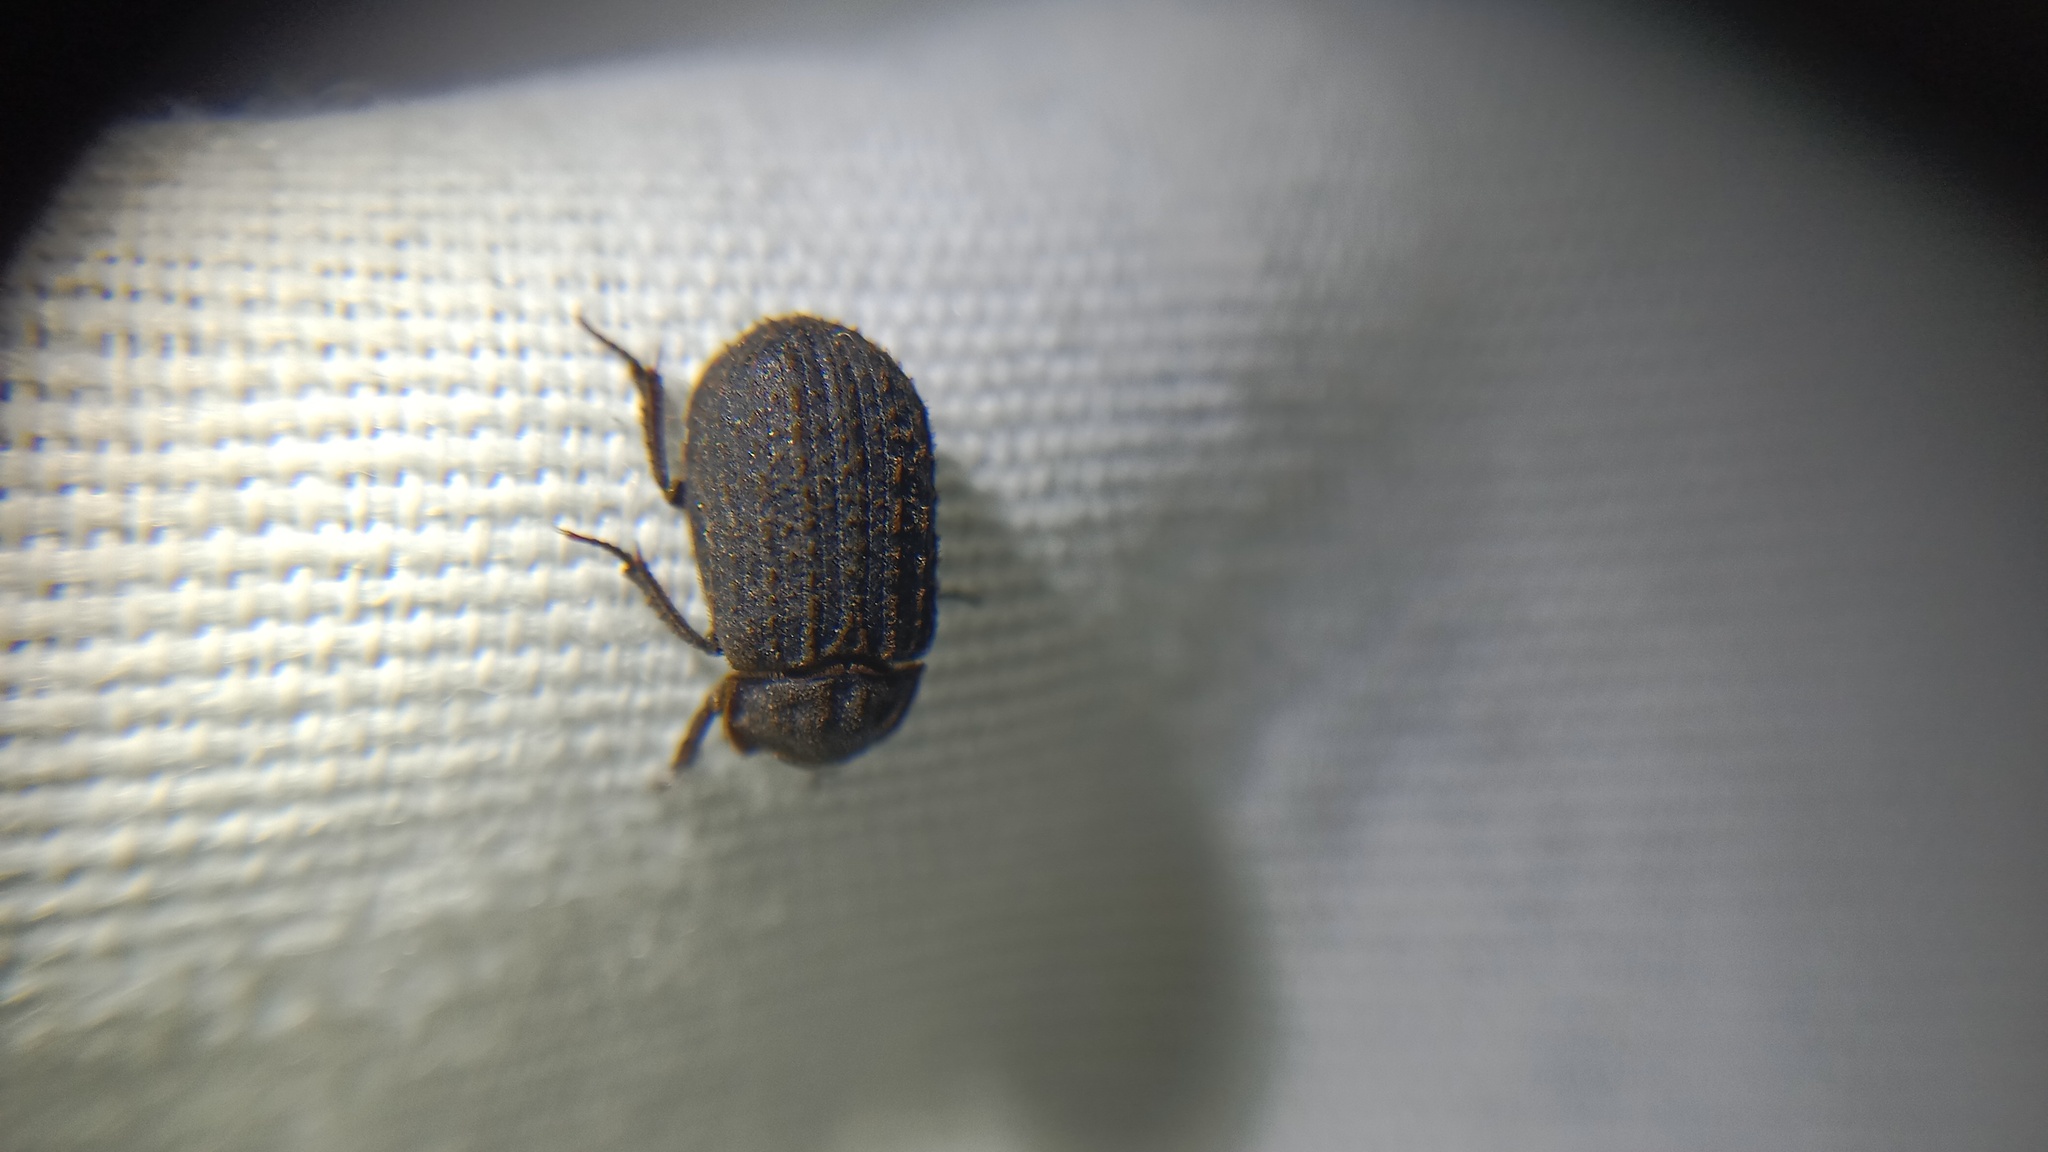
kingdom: Animalia
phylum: Arthropoda
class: Insecta
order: Coleoptera
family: Trogidae
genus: Trox
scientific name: Trox scaber
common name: Hide beetle
